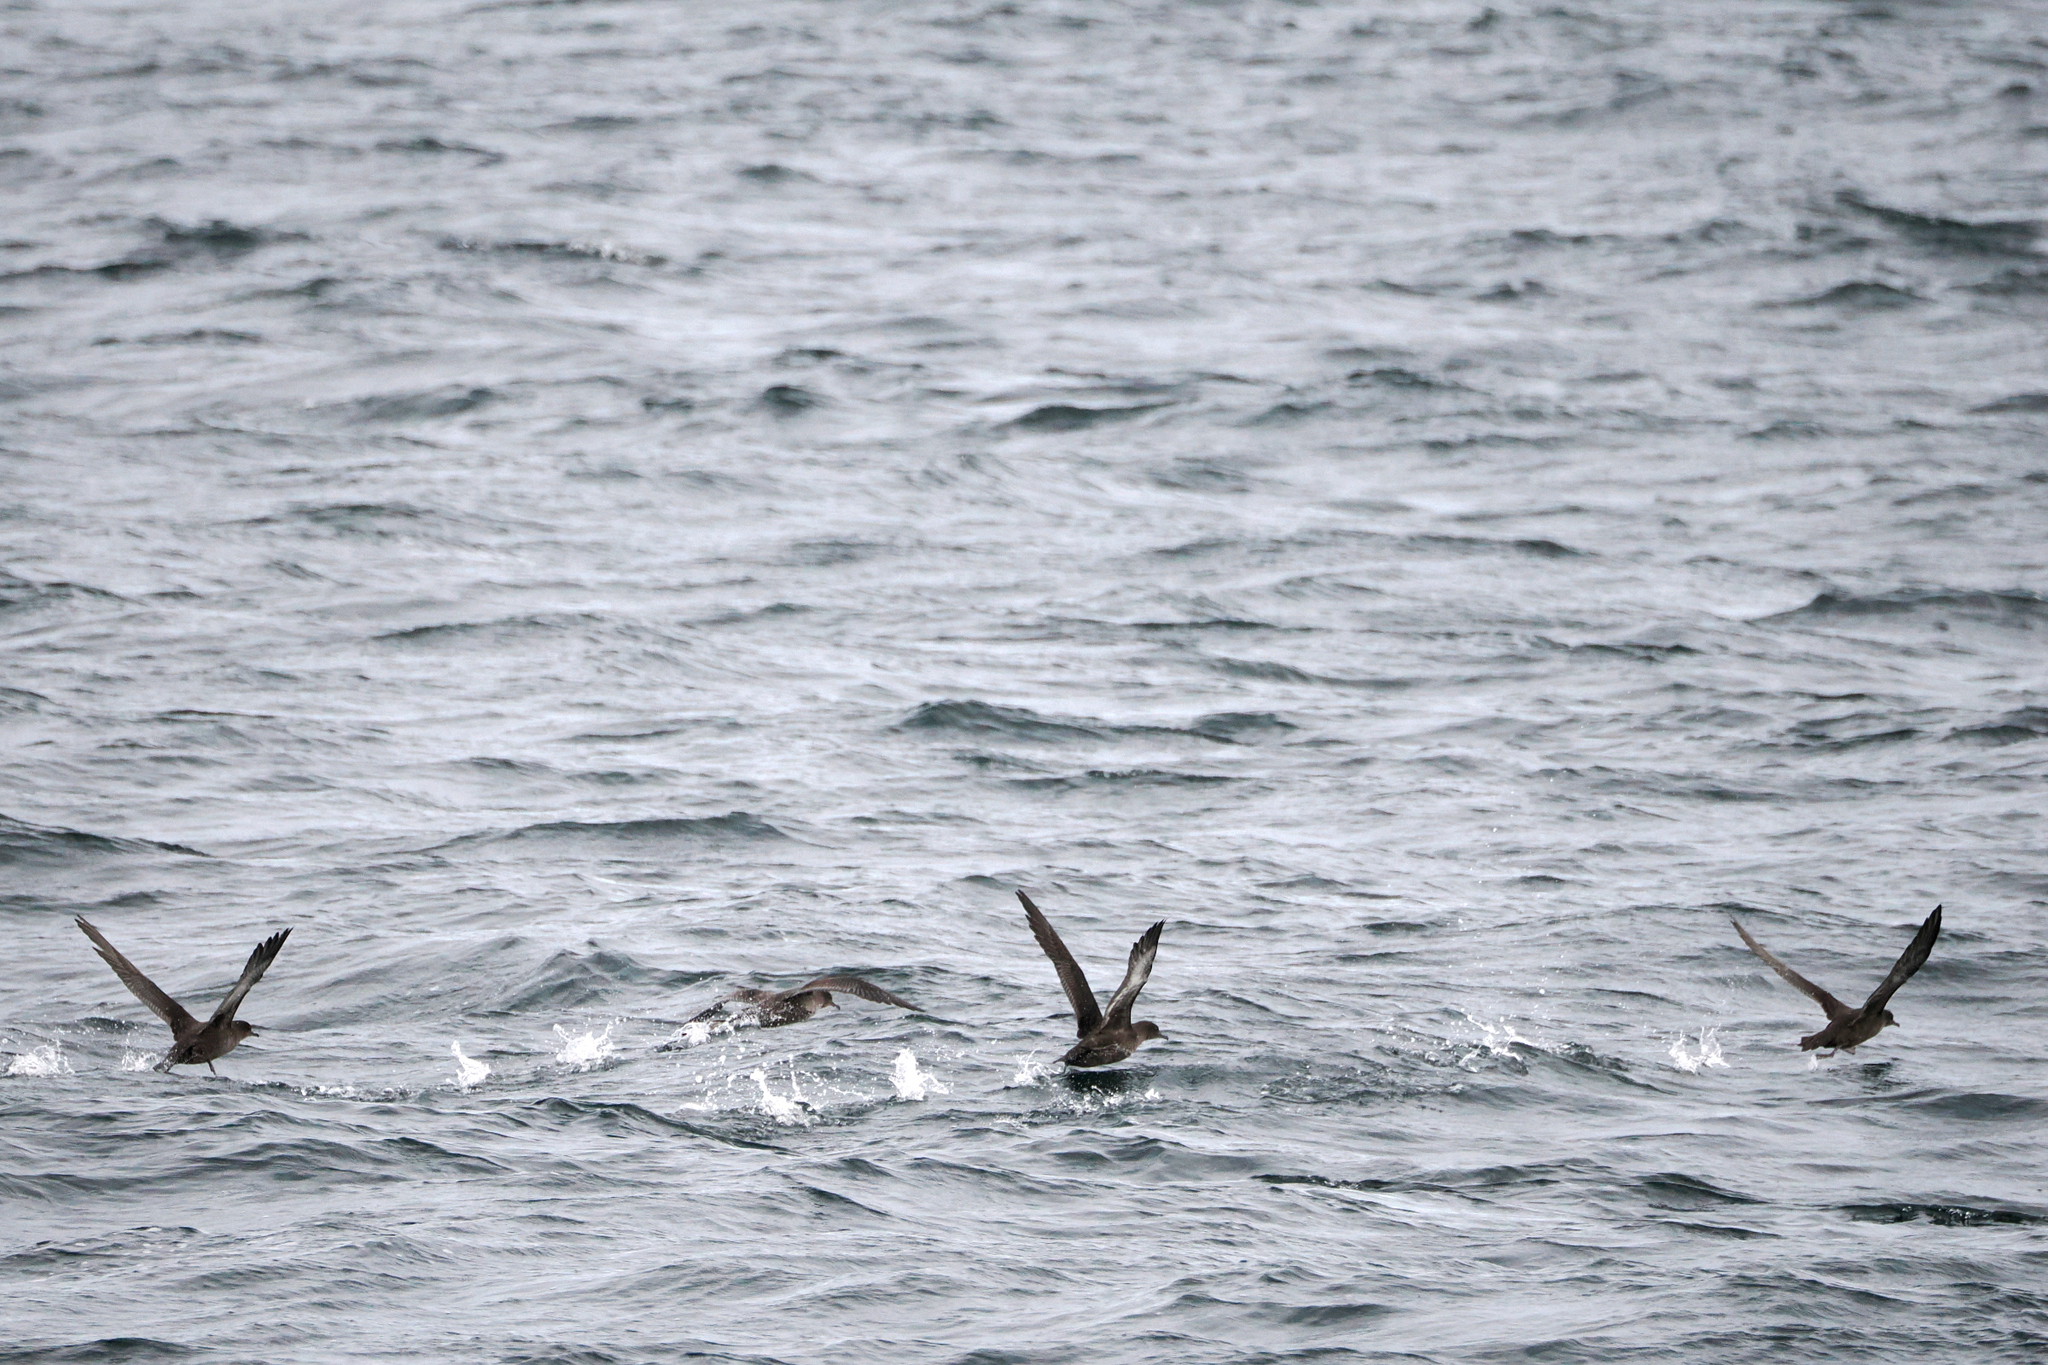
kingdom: Animalia
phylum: Chordata
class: Aves
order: Procellariiformes
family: Procellariidae
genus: Puffinus
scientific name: Puffinus griseus
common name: Sooty shearwater
